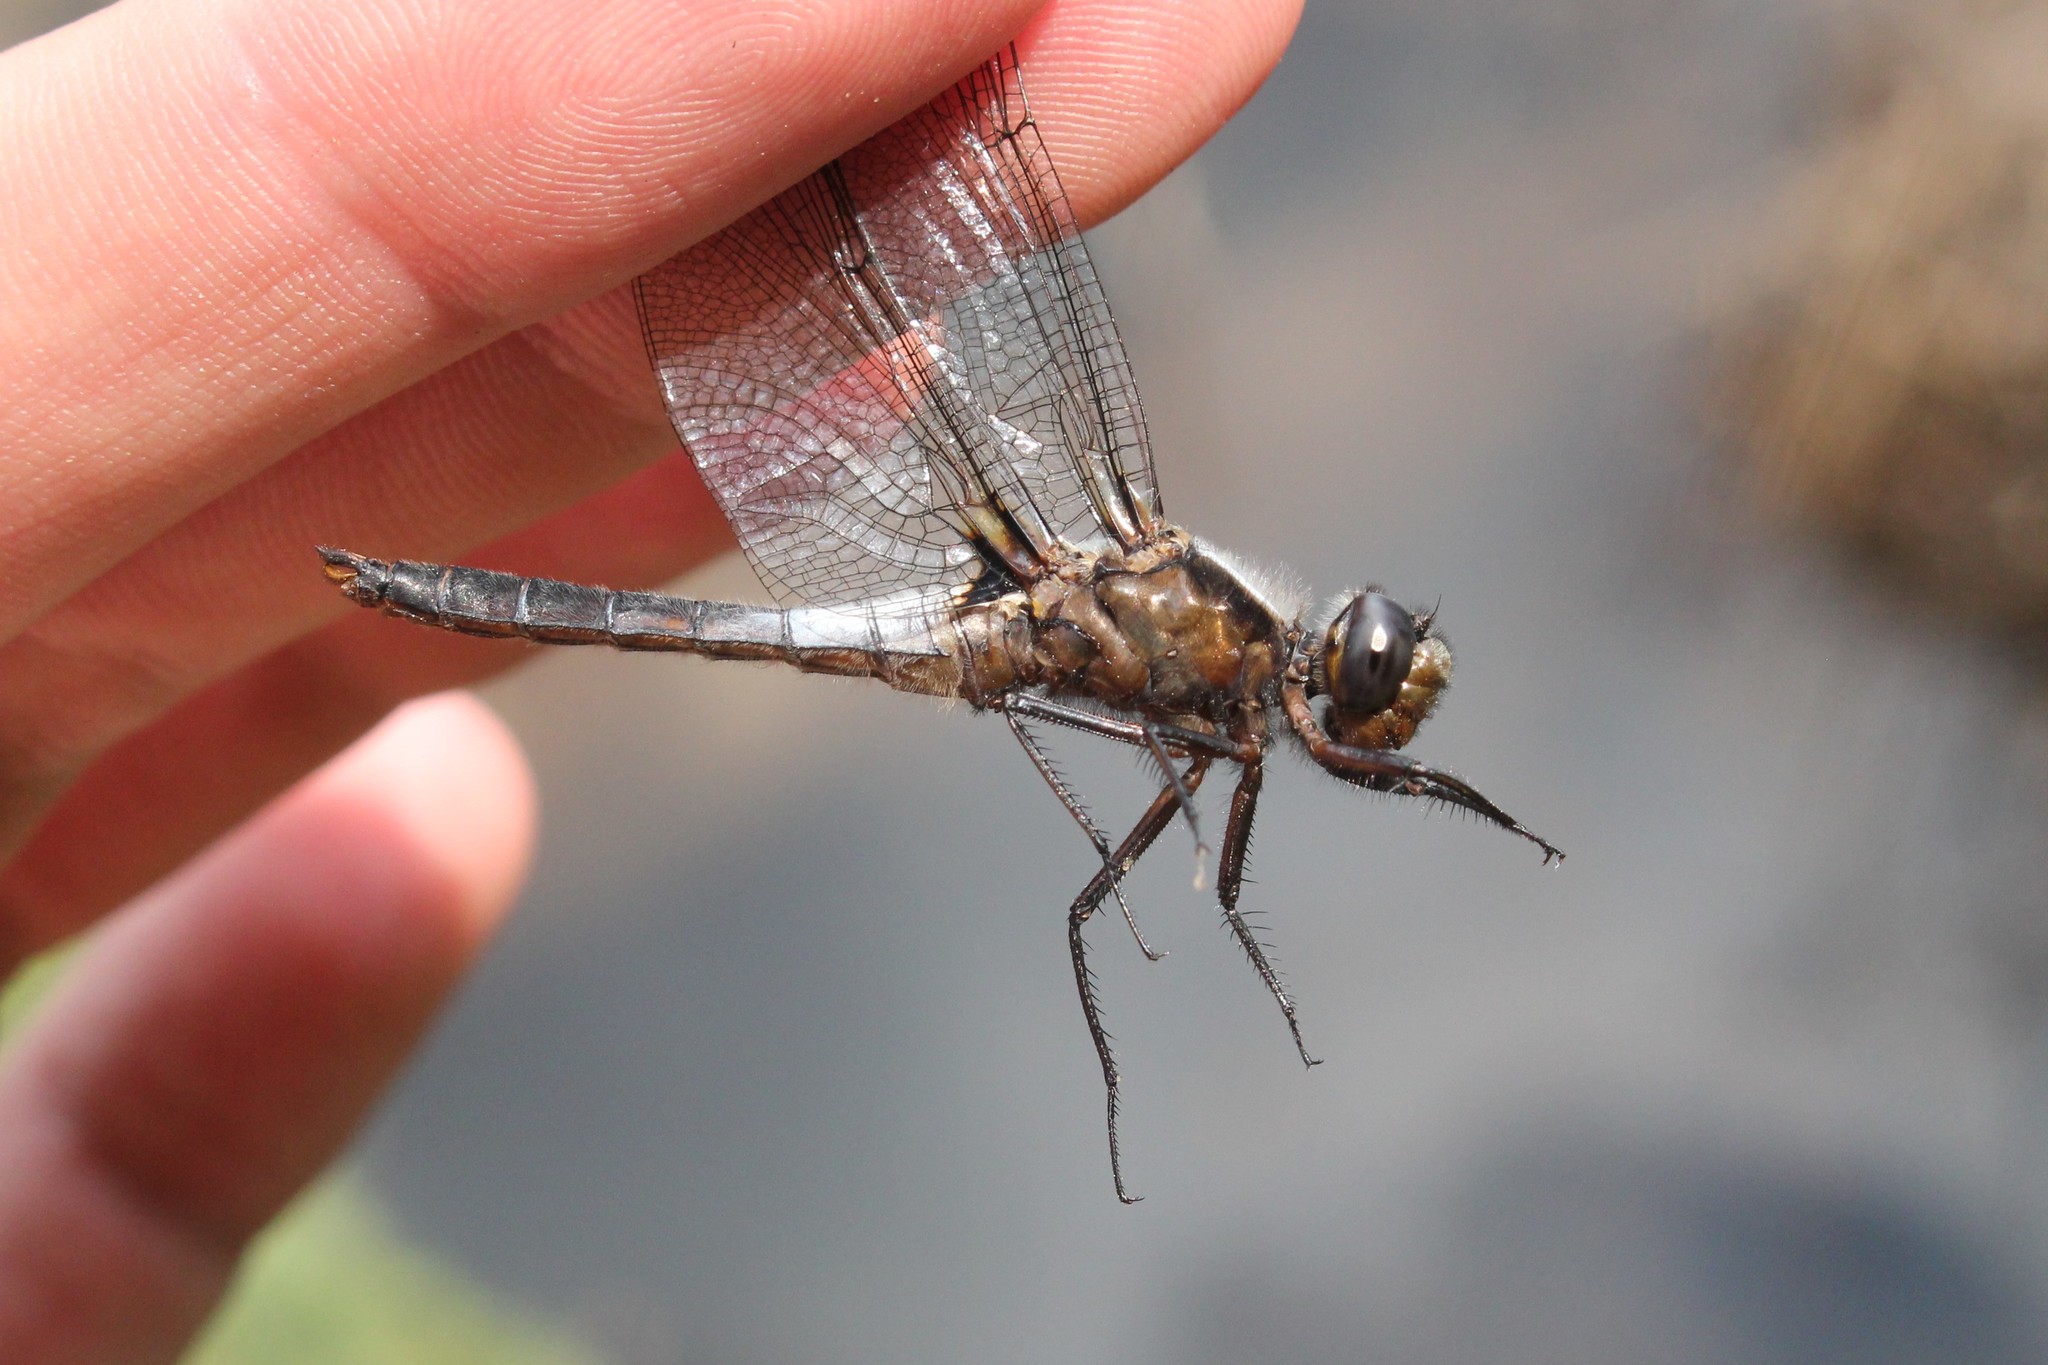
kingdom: Animalia
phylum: Arthropoda
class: Insecta
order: Odonata
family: Libellulidae
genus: Ladona
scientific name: Ladona julia
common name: Chalk-fronted corporal
